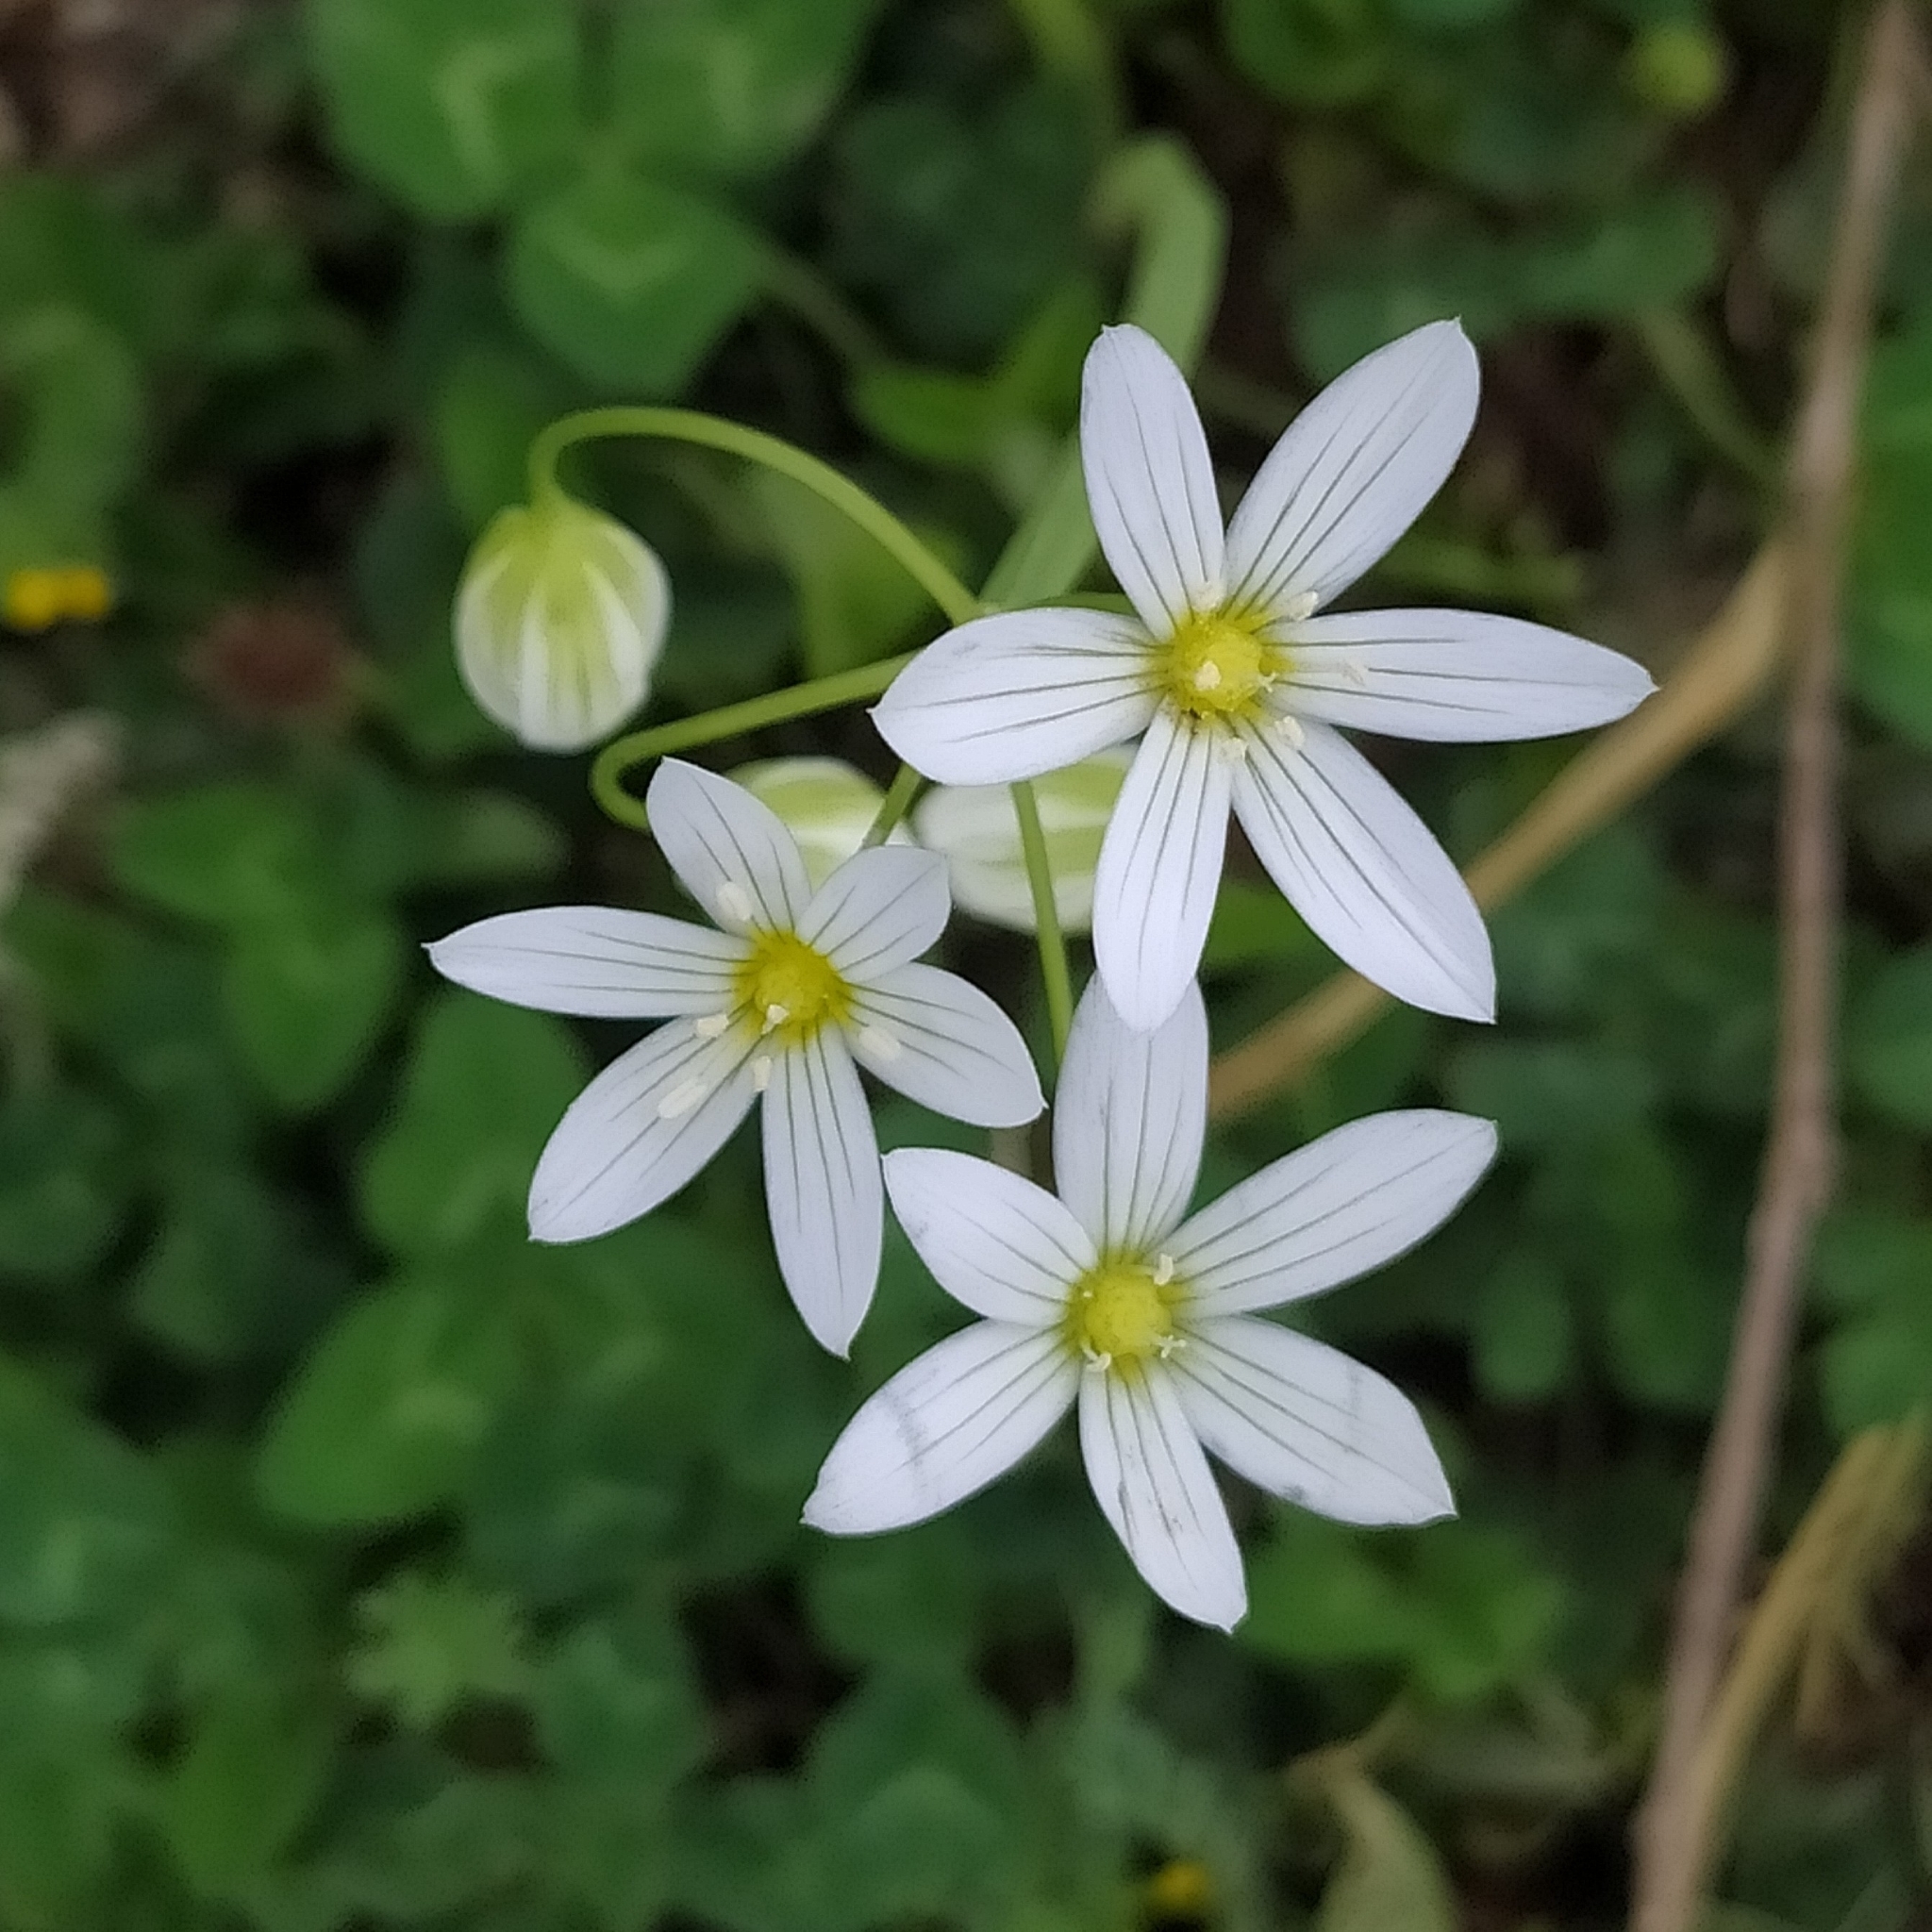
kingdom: Plantae
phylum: Tracheophyta
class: Liliopsida
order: Asparagales
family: Amaryllidaceae
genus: Allium
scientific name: Allium pendulinum
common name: Italian garlic
